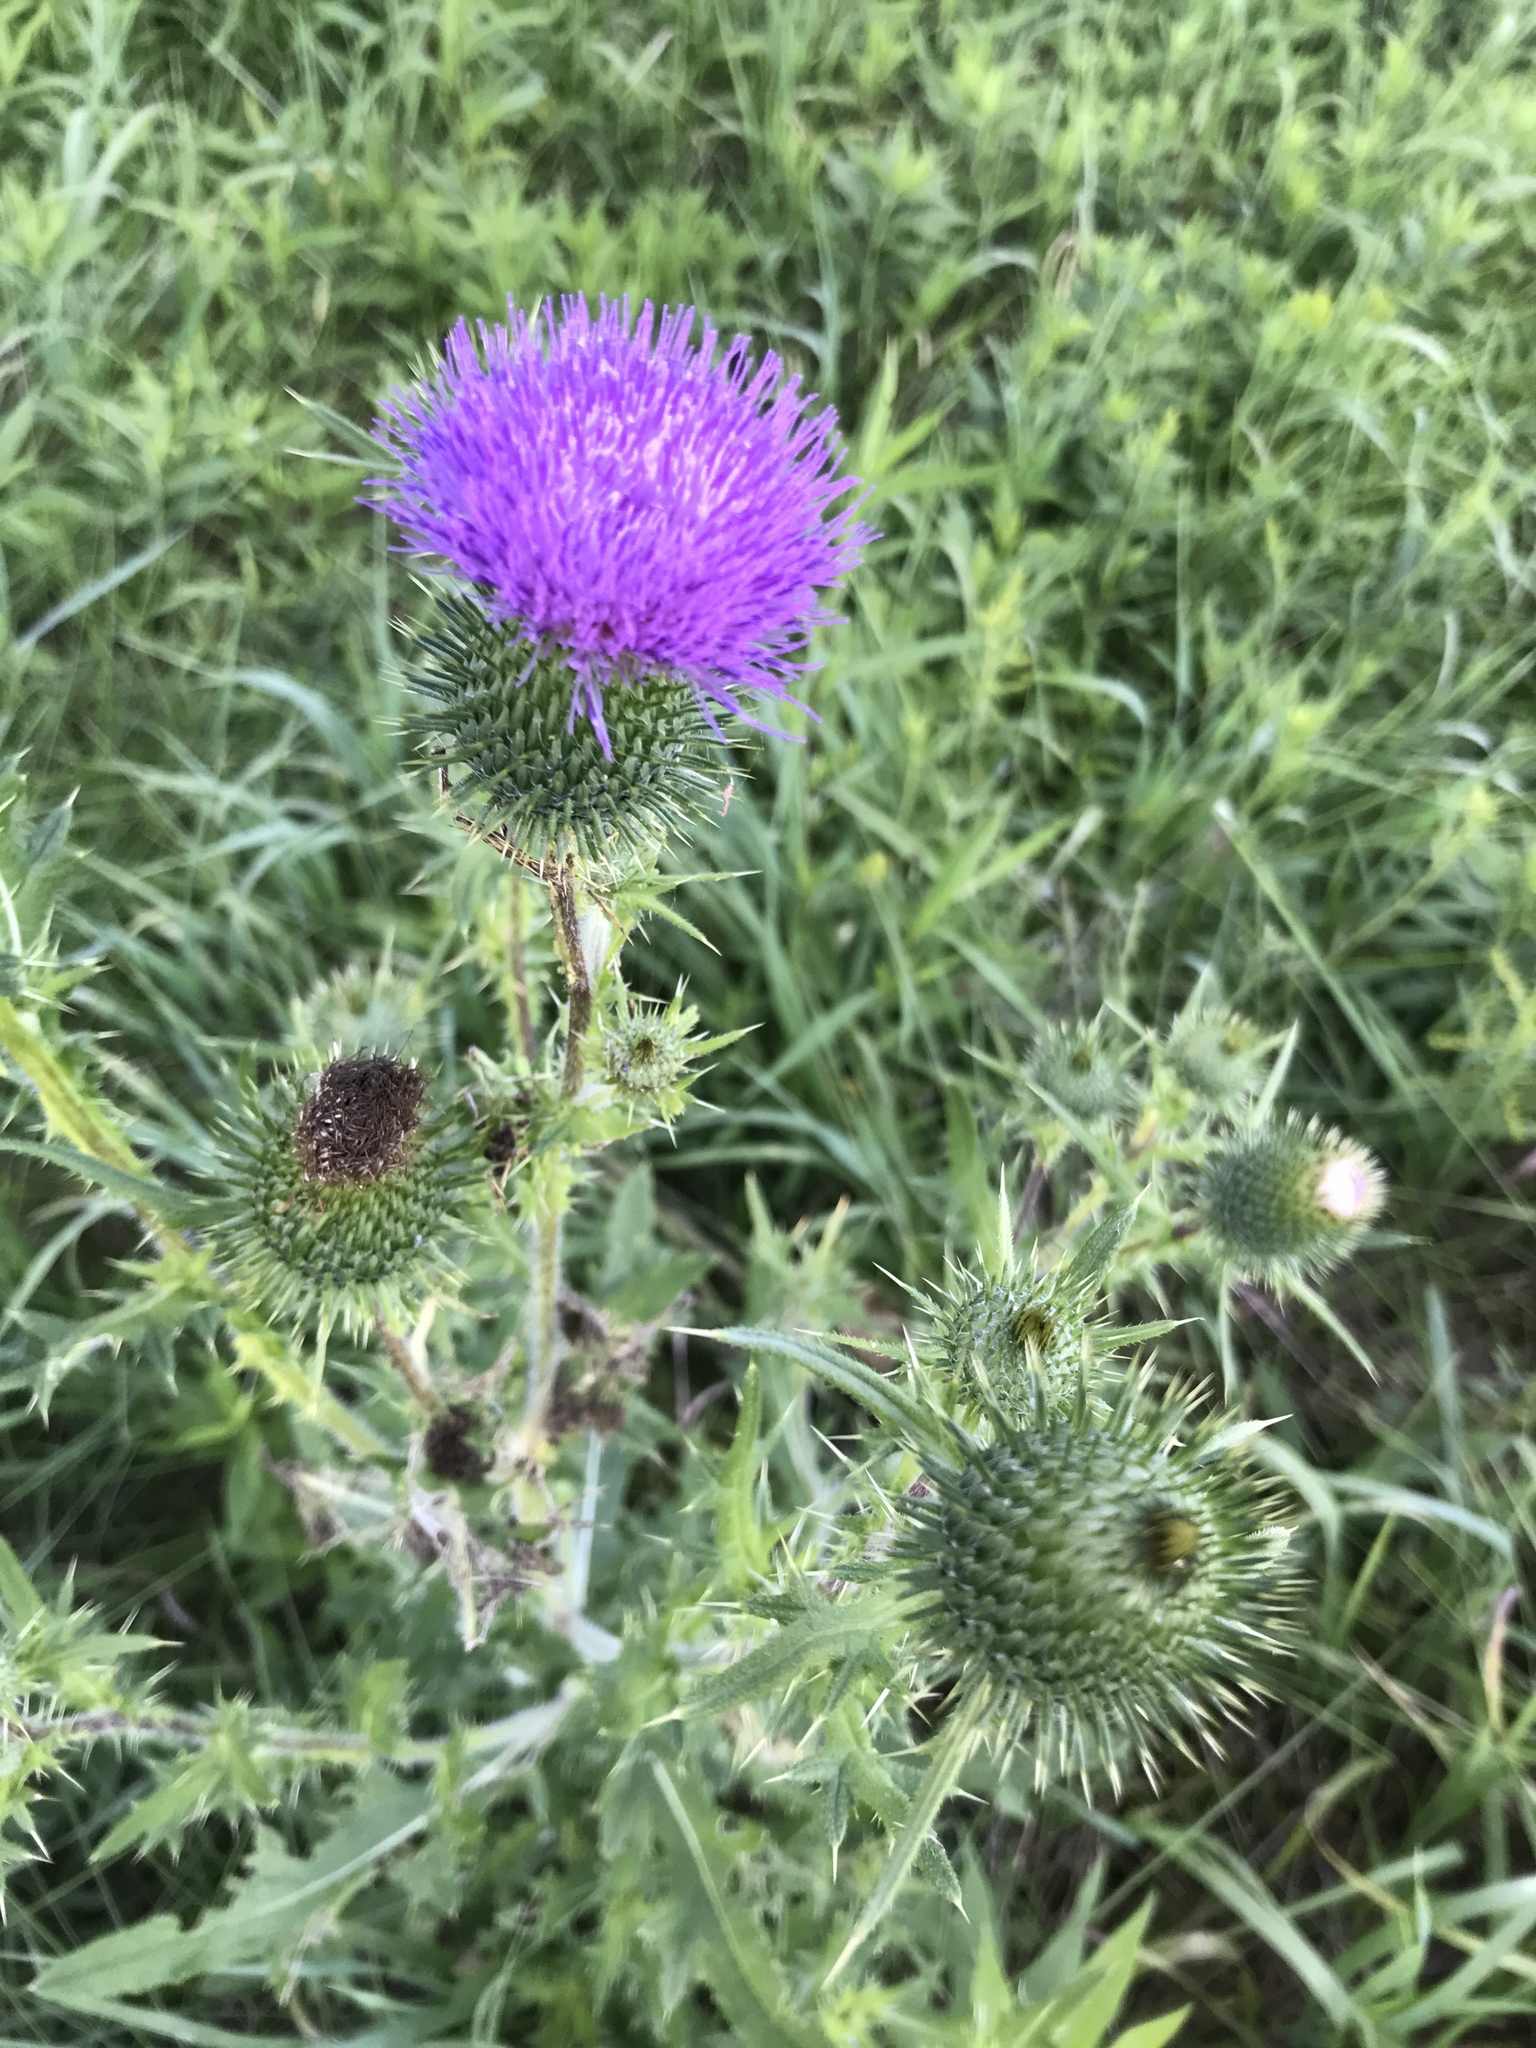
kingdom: Plantae
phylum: Tracheophyta
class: Magnoliopsida
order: Asterales
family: Asteraceae
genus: Cirsium
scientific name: Cirsium vulgare
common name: Bull thistle
